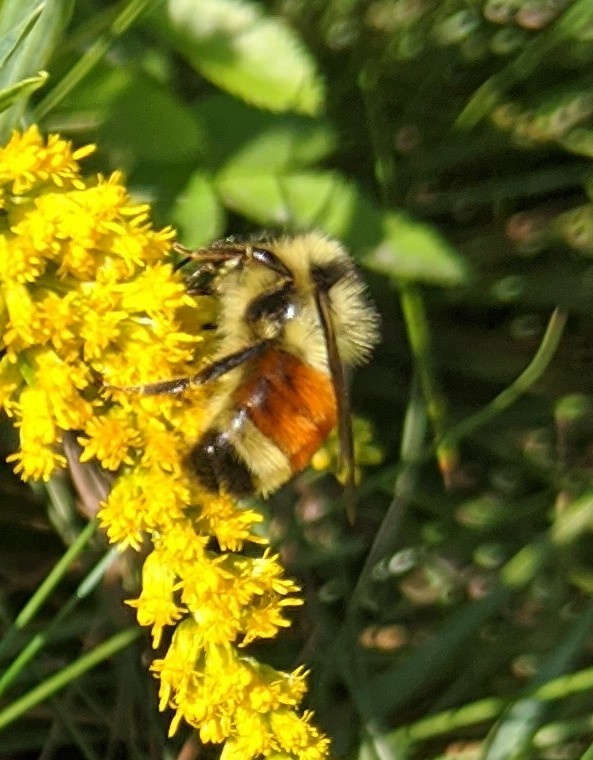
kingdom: Animalia
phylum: Arthropoda
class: Insecta
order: Hymenoptera
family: Apidae
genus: Bombus
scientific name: Bombus ternarius
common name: Tri-colored bumble bee
